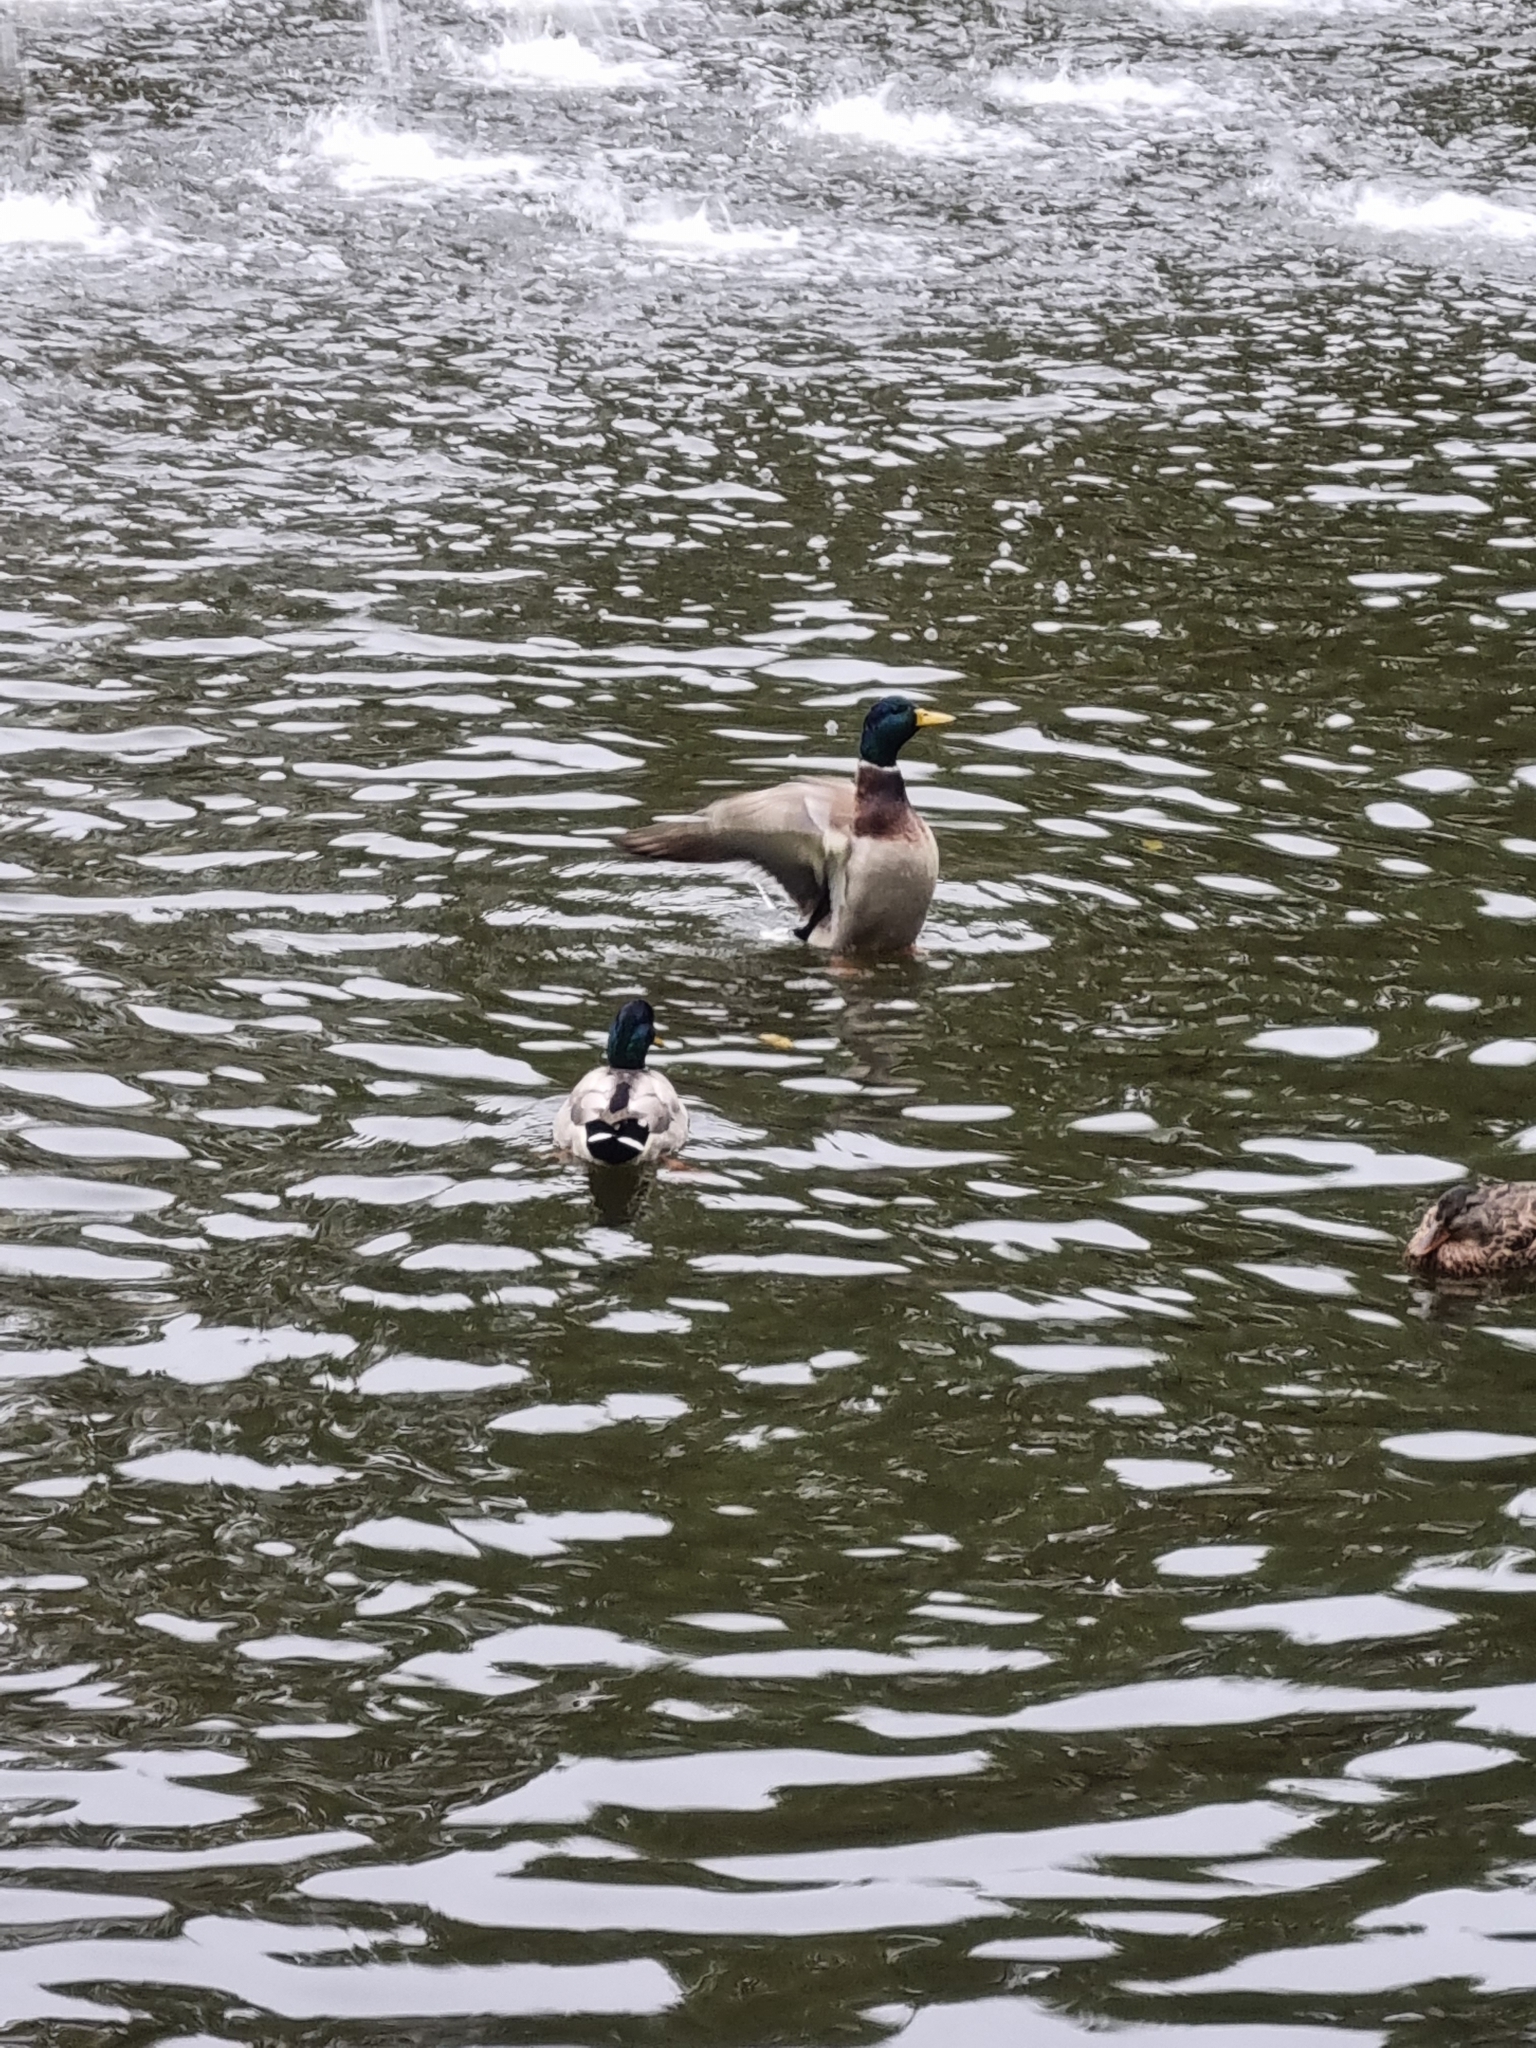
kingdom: Animalia
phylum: Chordata
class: Aves
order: Anseriformes
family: Anatidae
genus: Anas
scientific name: Anas platyrhynchos
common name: Mallard
